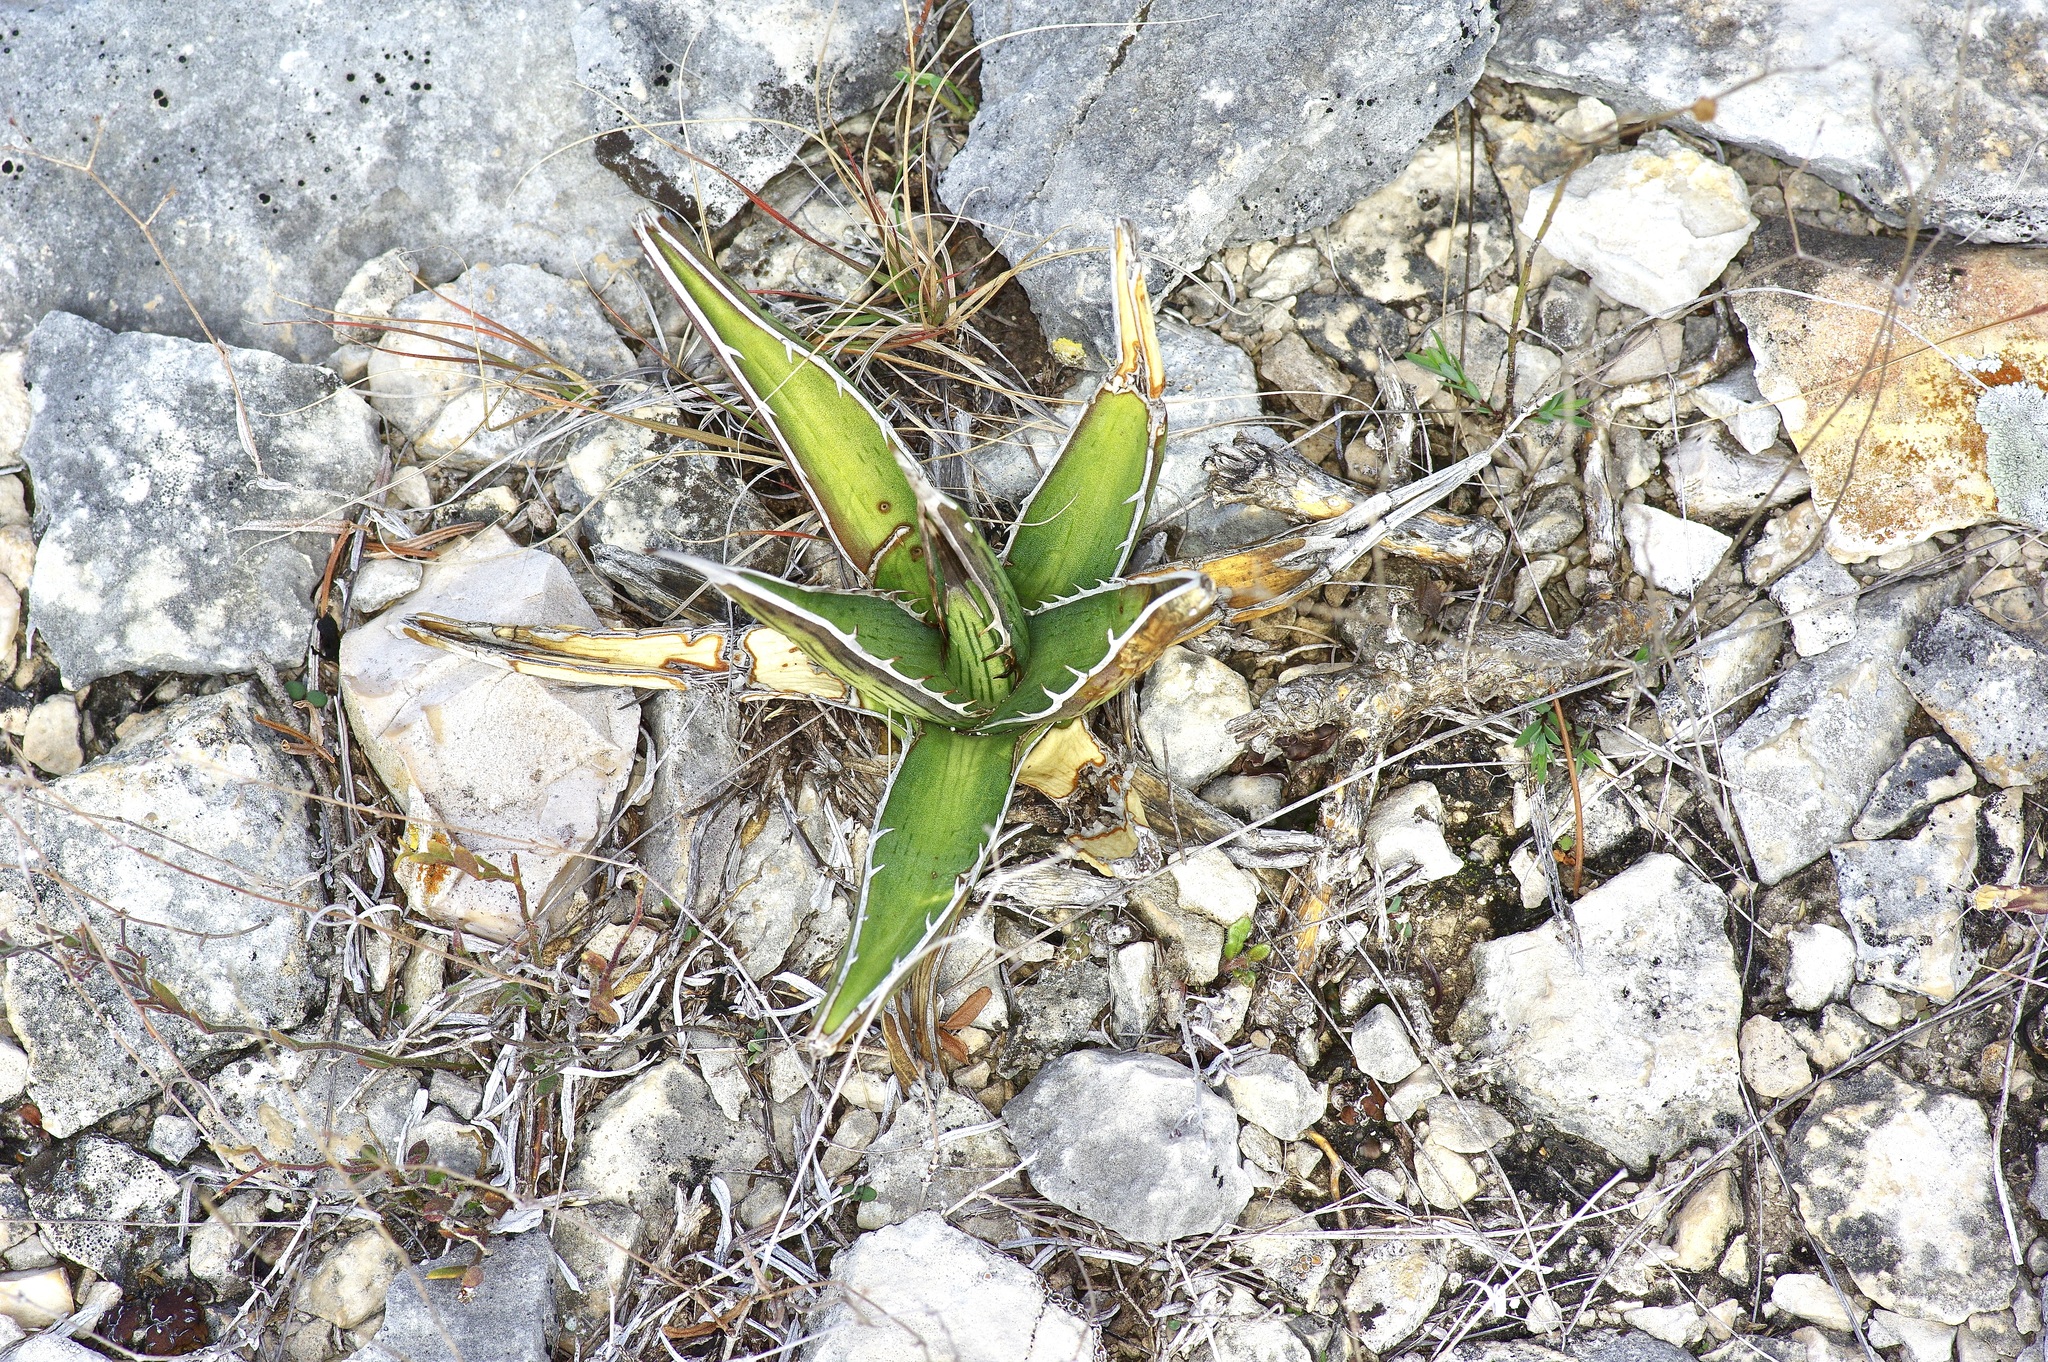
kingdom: Plantae
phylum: Tracheophyta
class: Liliopsida
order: Asparagales
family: Asparagaceae
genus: Agave
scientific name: Agave lechuguilla
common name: Lecheguilla agave
